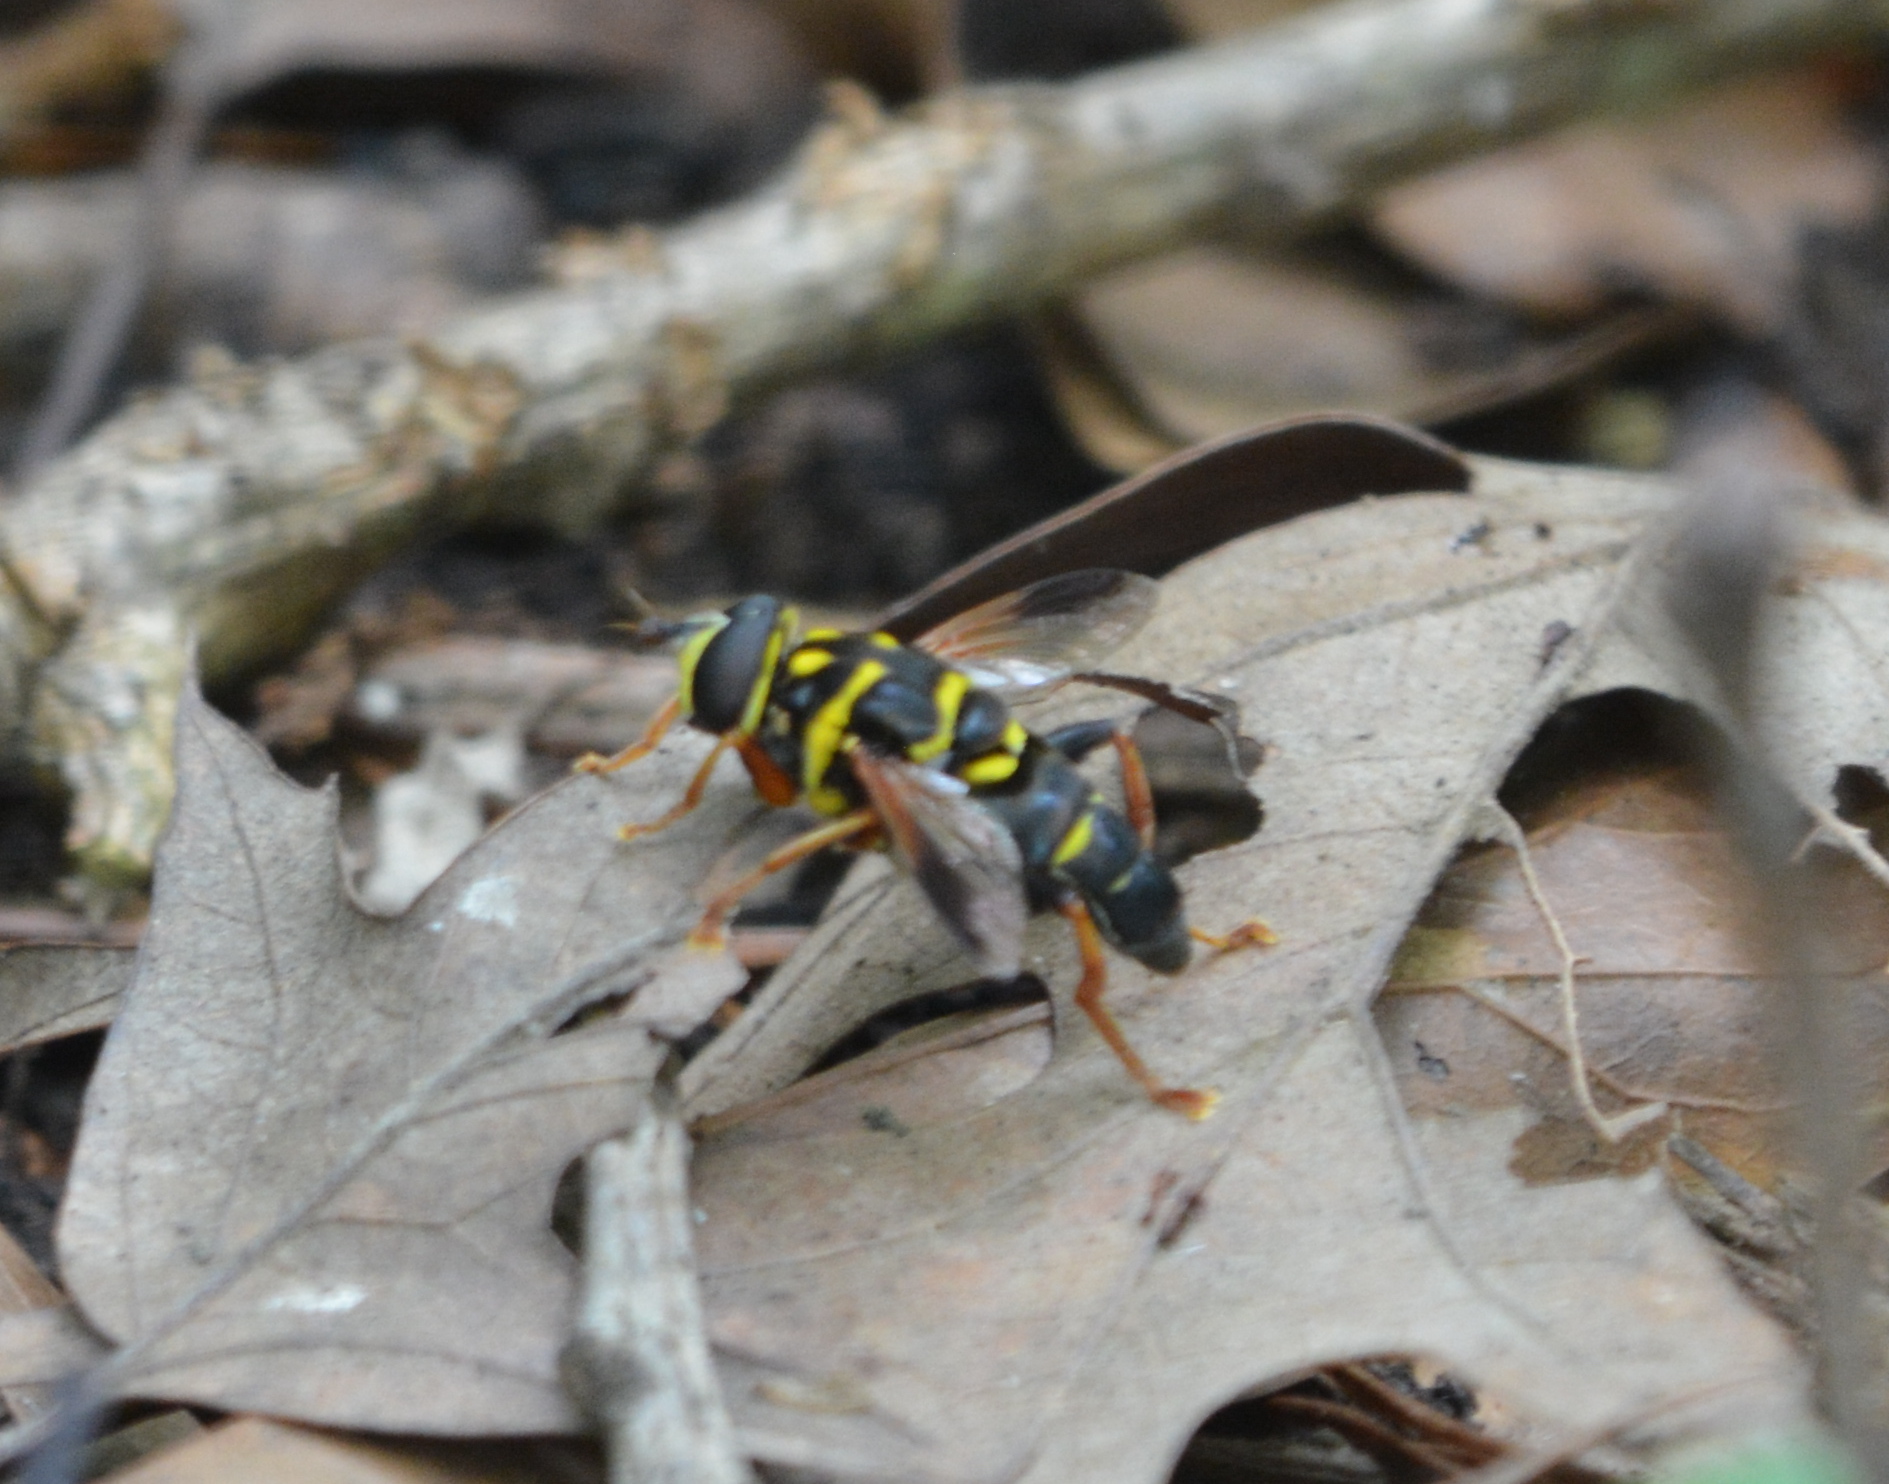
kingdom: Animalia
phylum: Arthropoda
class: Insecta
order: Diptera
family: Syrphidae
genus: Meromacrus
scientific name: Meromacrus acutus
